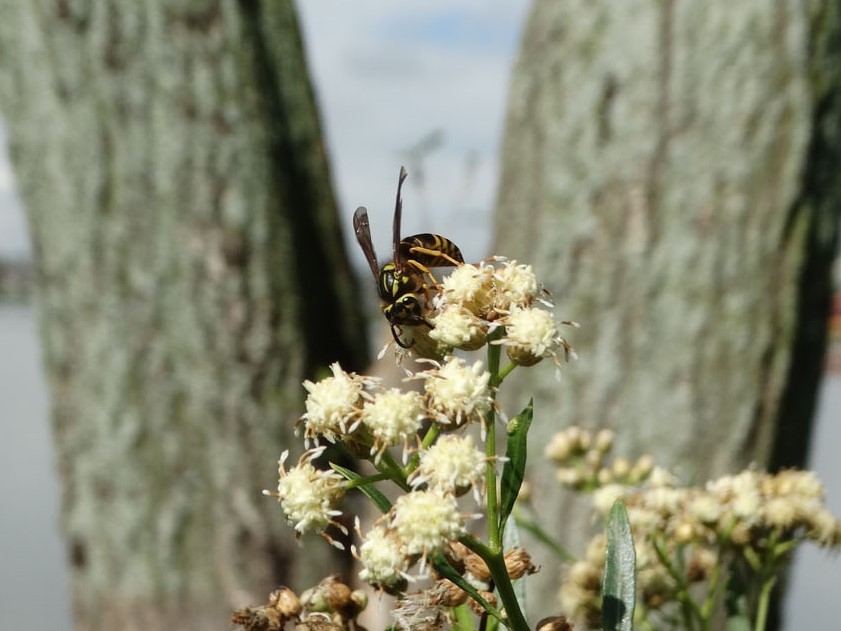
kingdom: Animalia
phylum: Arthropoda
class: Insecta
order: Hymenoptera
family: Vespidae
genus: Vespula
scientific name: Vespula squamosa
